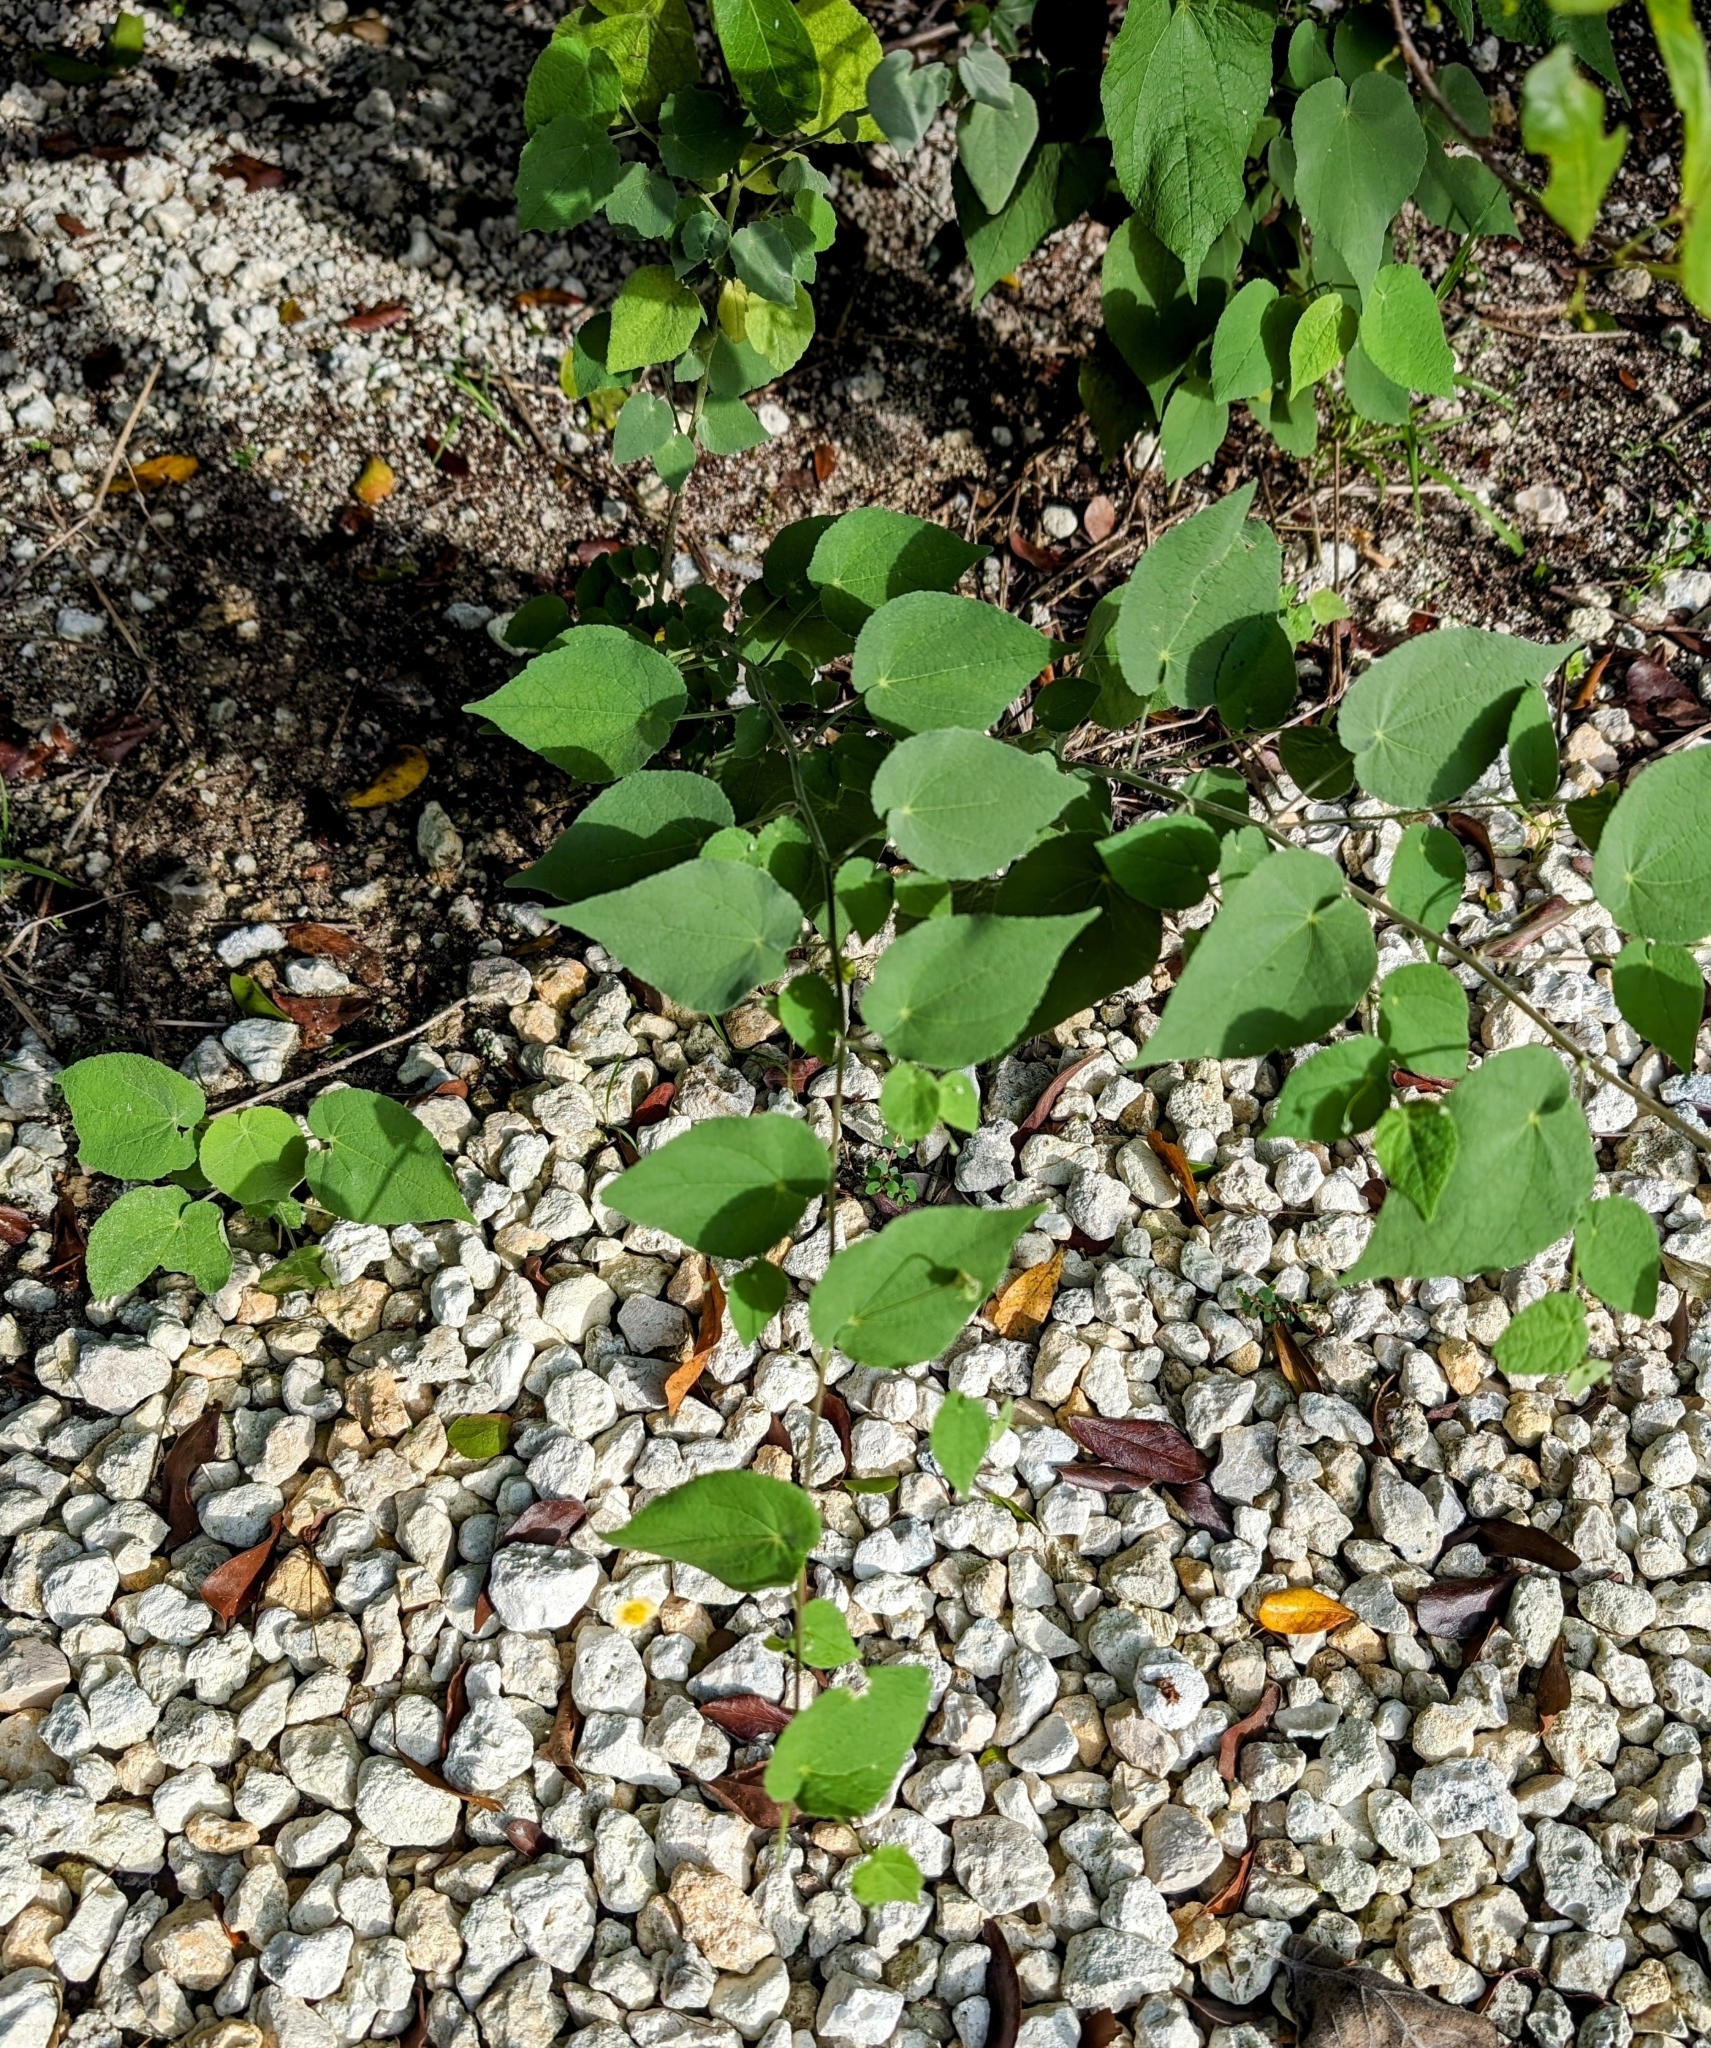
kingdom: Plantae
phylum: Tracheophyta
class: Magnoliopsida
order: Malvales
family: Malvaceae
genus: Herissantia
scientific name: Herissantia crispa
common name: Bladdermallow
